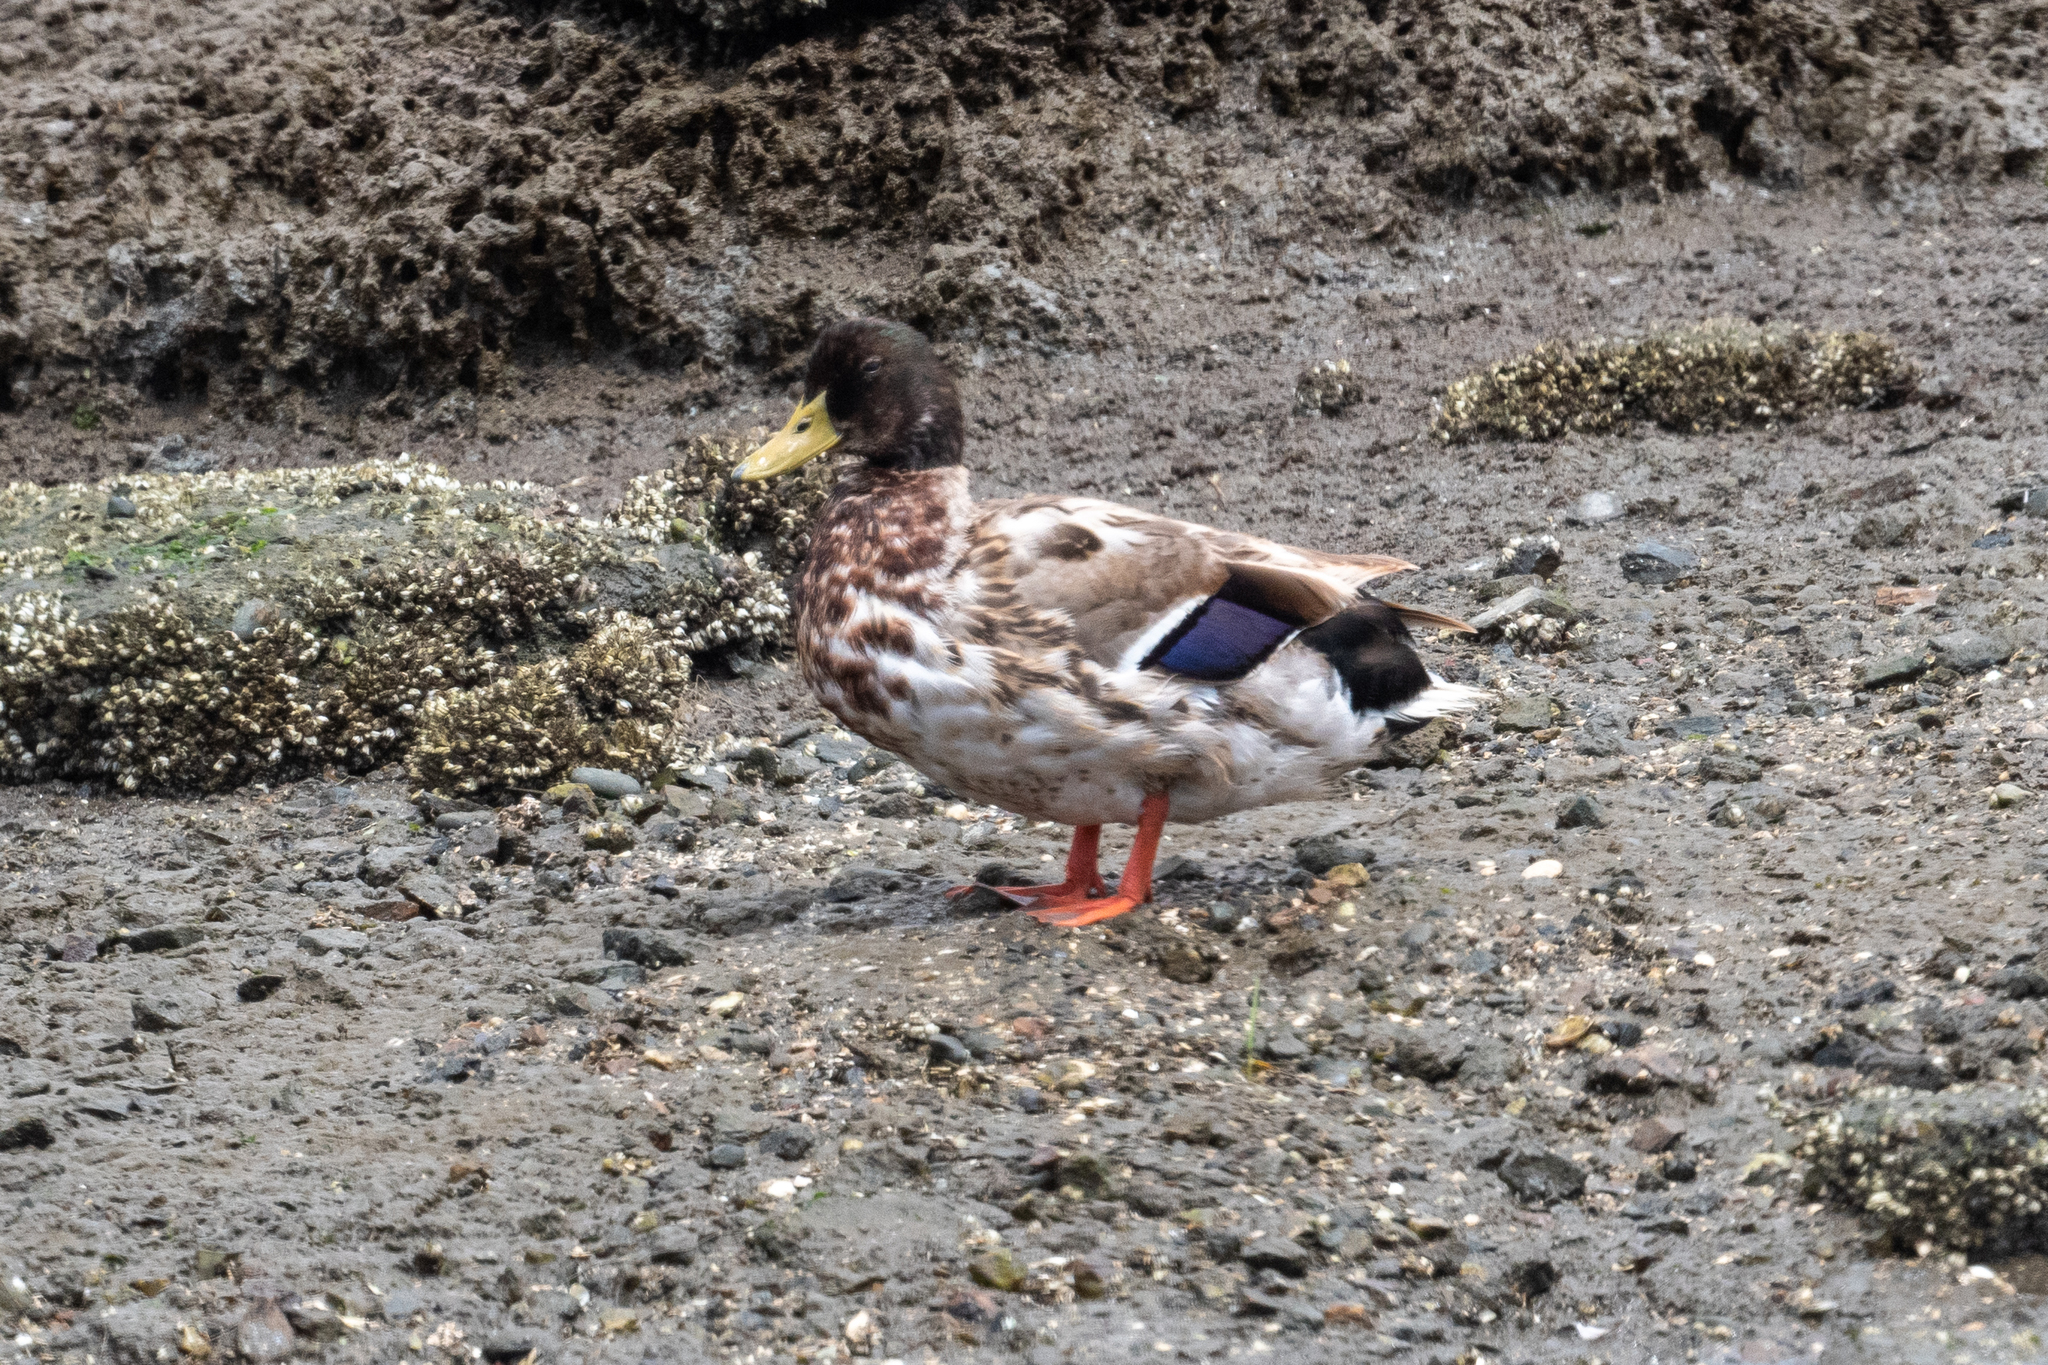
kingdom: Animalia
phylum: Chordata
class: Aves
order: Anseriformes
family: Anatidae
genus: Anas
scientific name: Anas platyrhynchos
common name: Mallard
